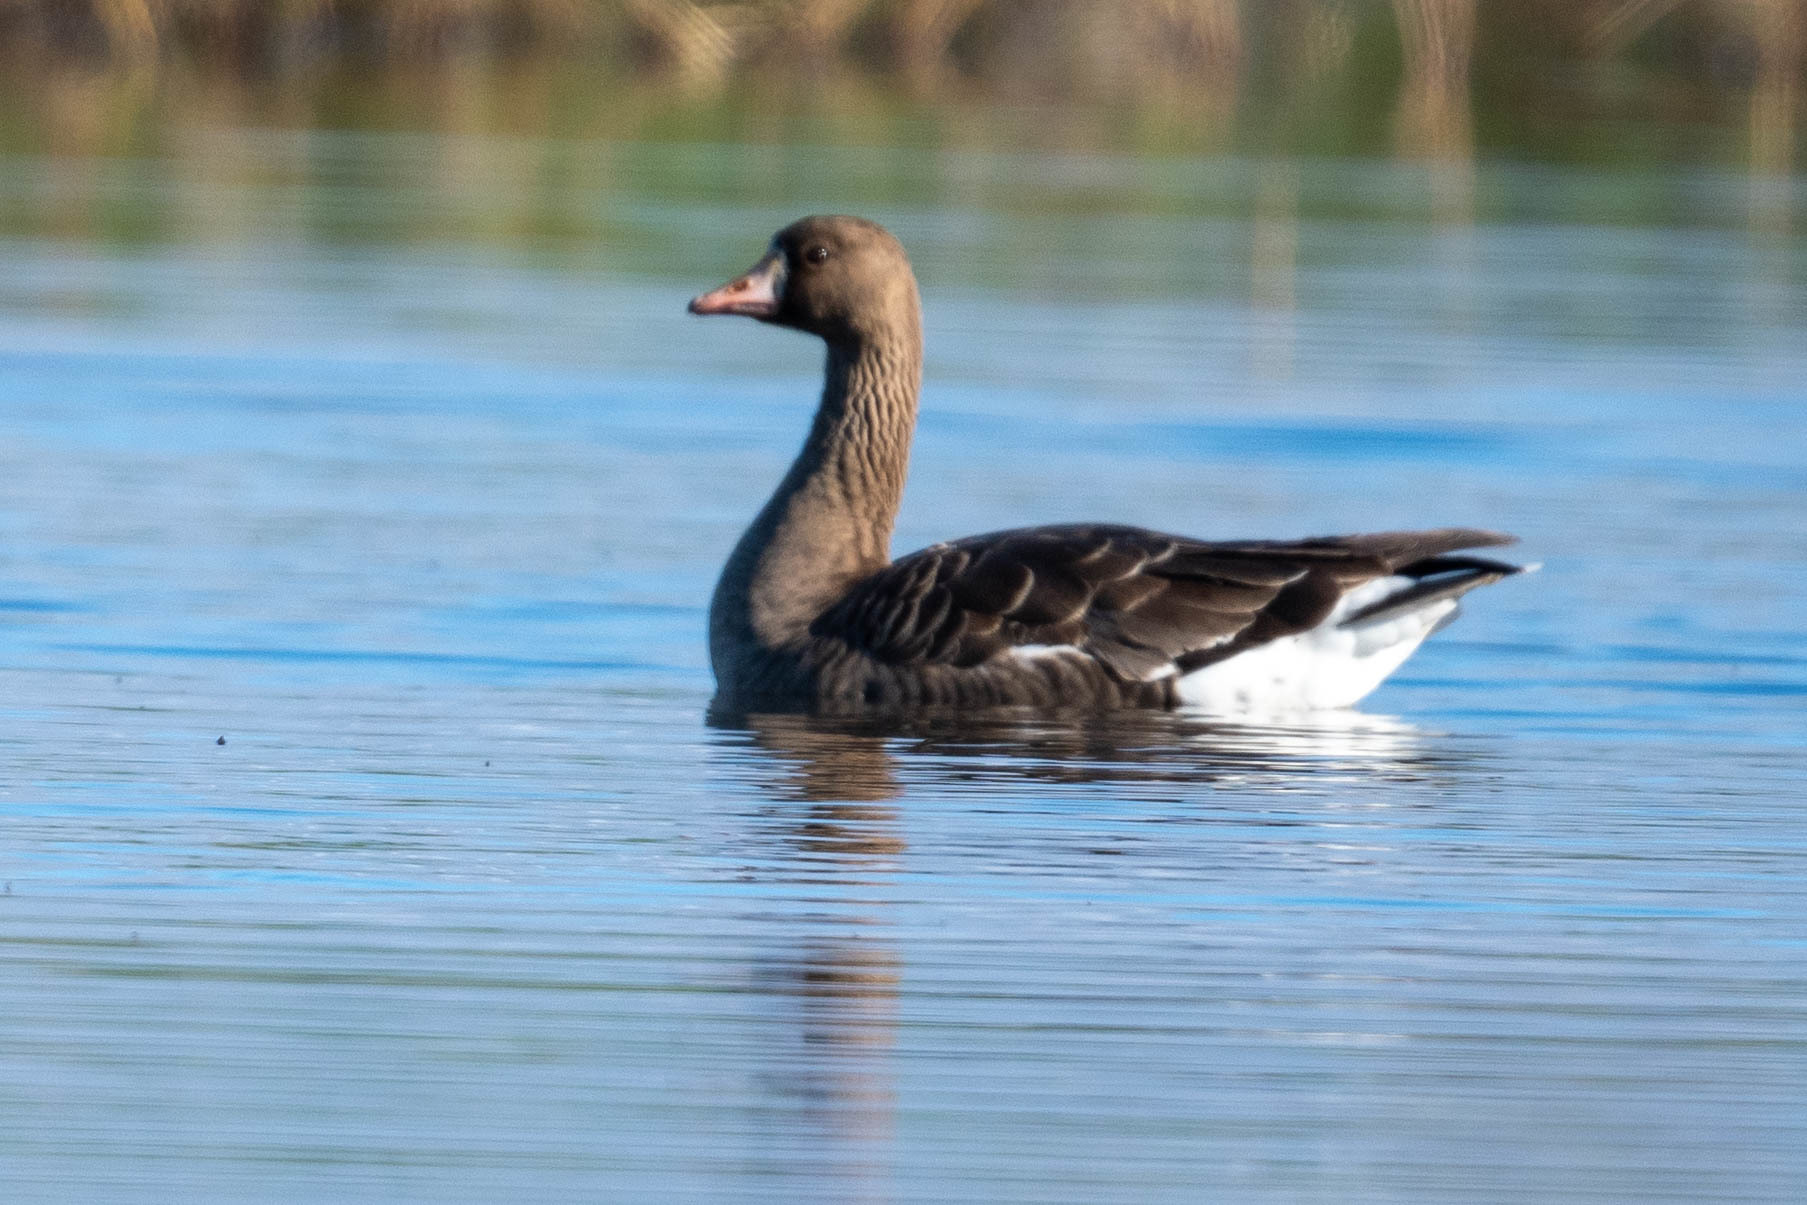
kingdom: Animalia
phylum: Chordata
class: Aves
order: Anseriformes
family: Anatidae
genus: Anser
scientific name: Anser albifrons
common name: Greater white-fronted goose
